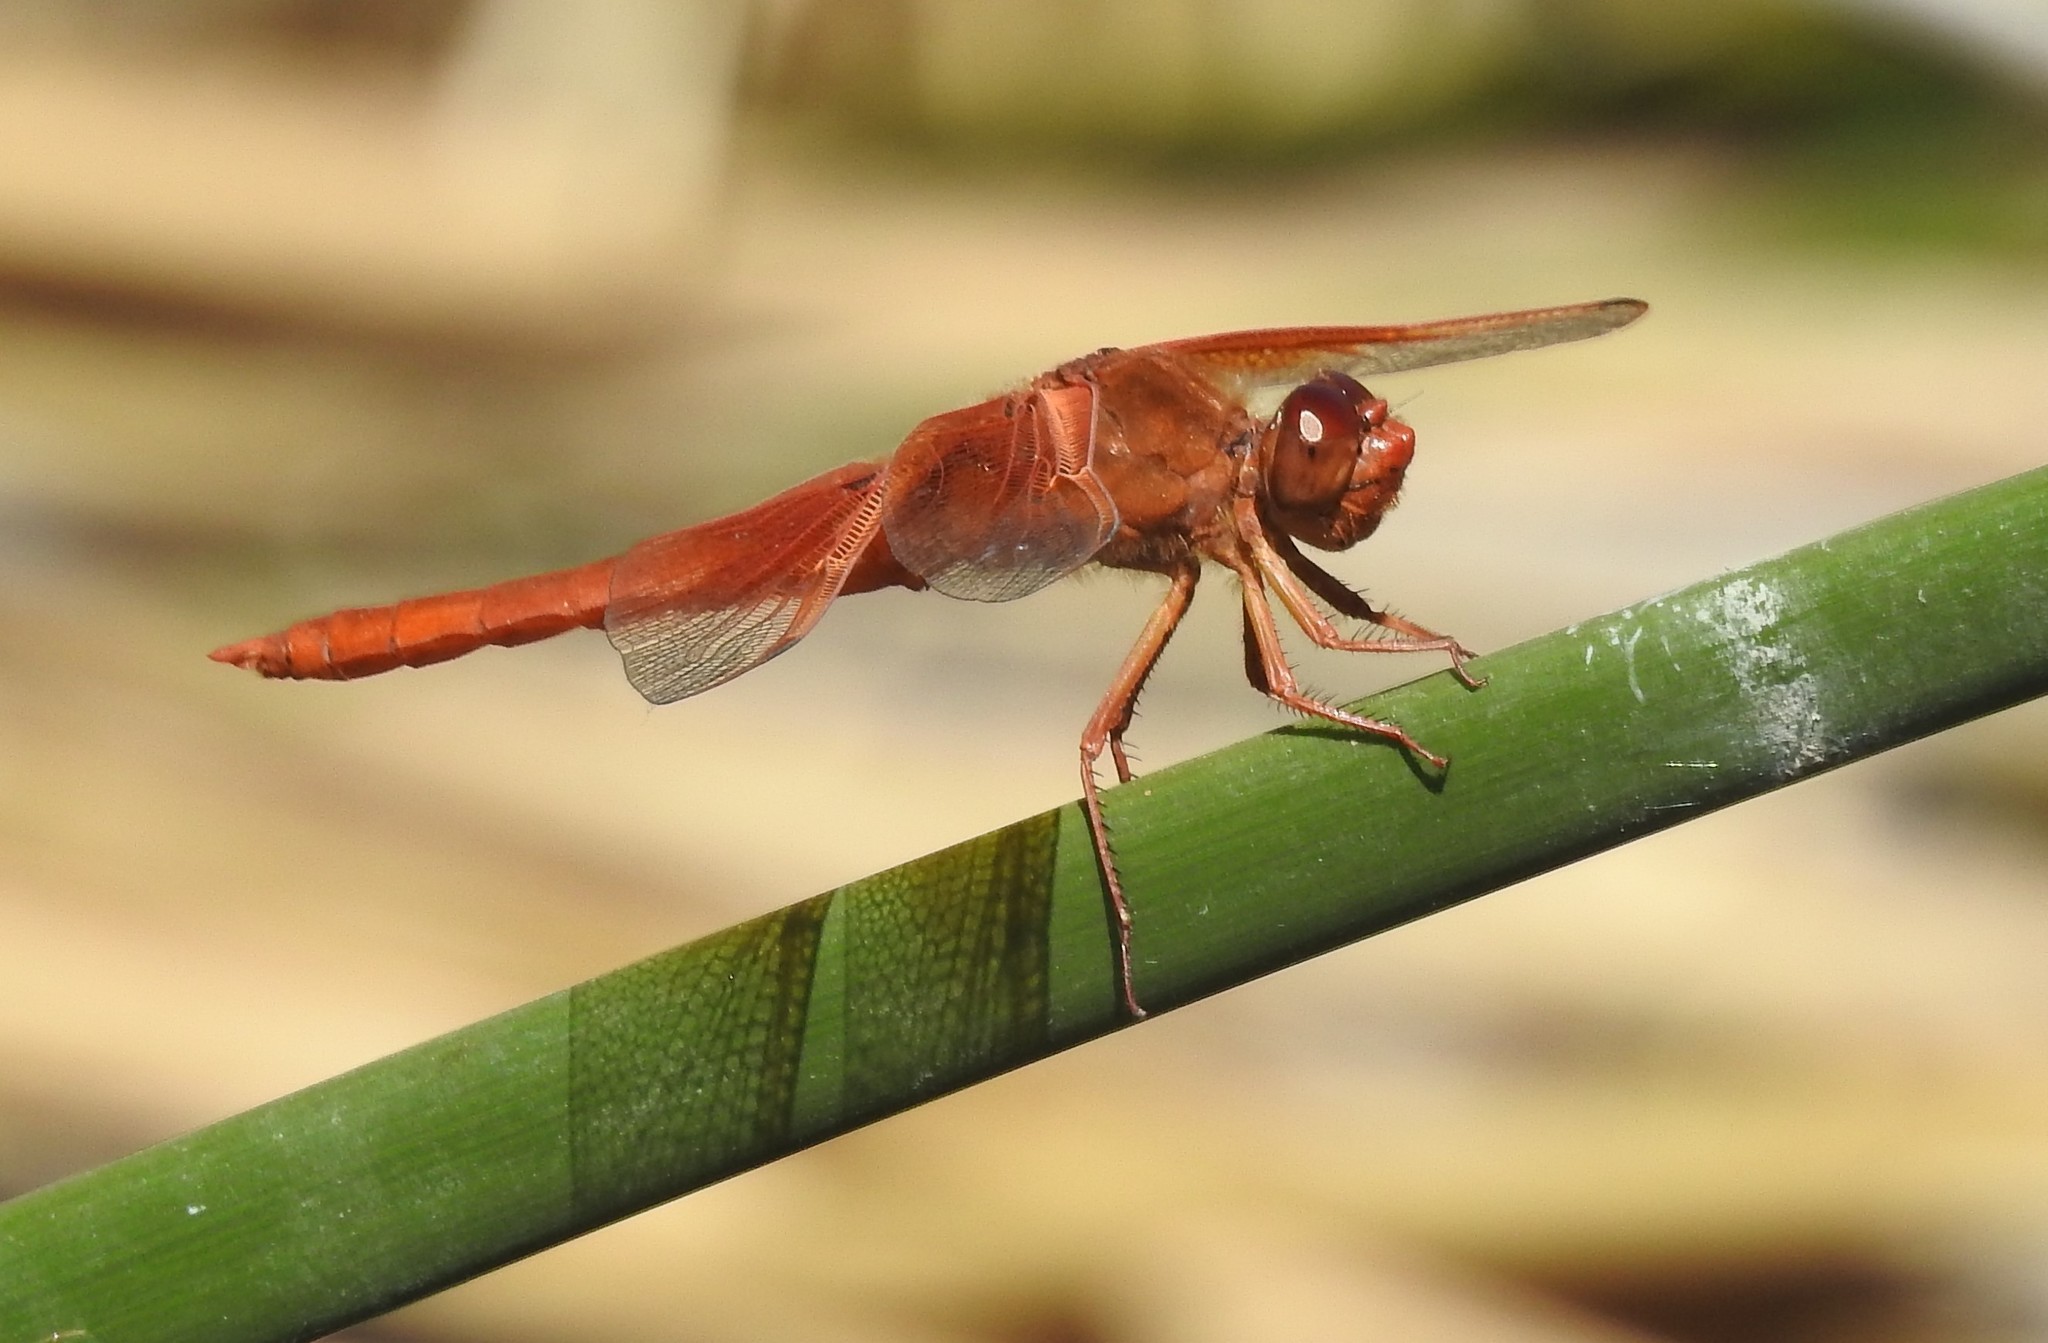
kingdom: Animalia
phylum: Arthropoda
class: Insecta
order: Odonata
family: Libellulidae
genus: Libellula
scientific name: Libellula saturata
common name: Flame skimmer
